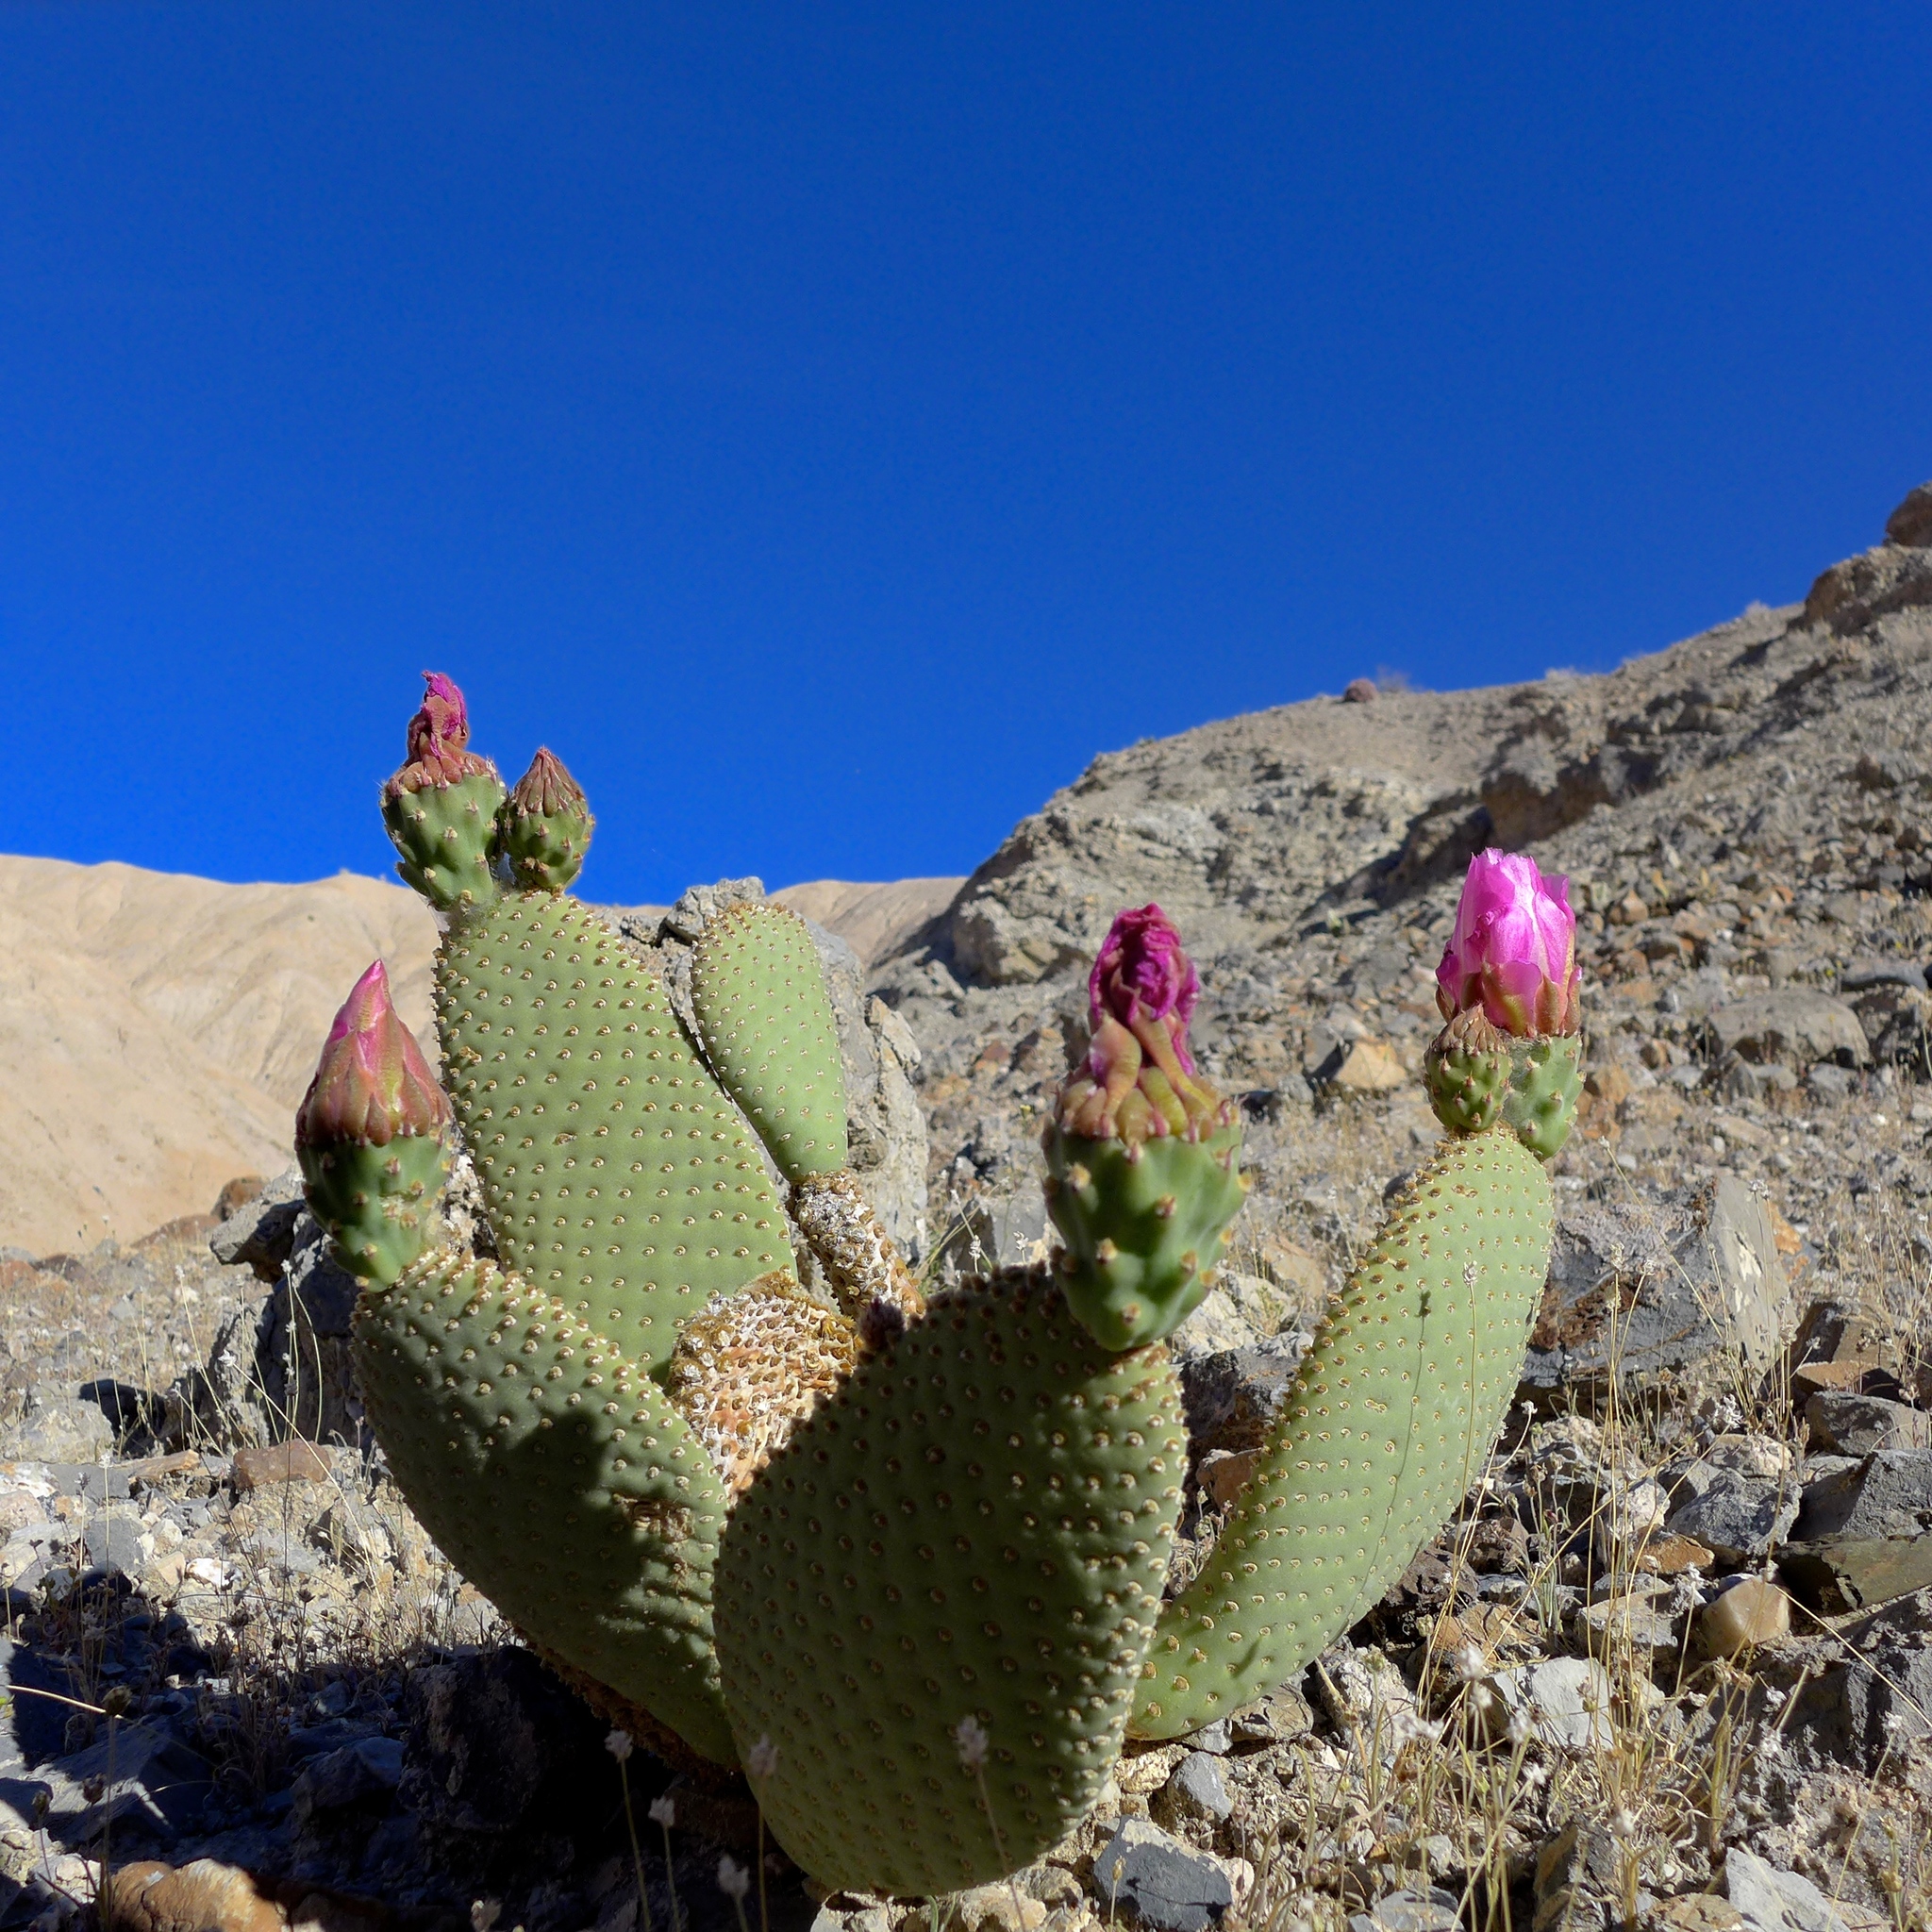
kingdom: Plantae
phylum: Tracheophyta
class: Magnoliopsida
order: Caryophyllales
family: Cactaceae
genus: Opuntia
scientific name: Opuntia basilaris
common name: Beavertail prickly-pear
